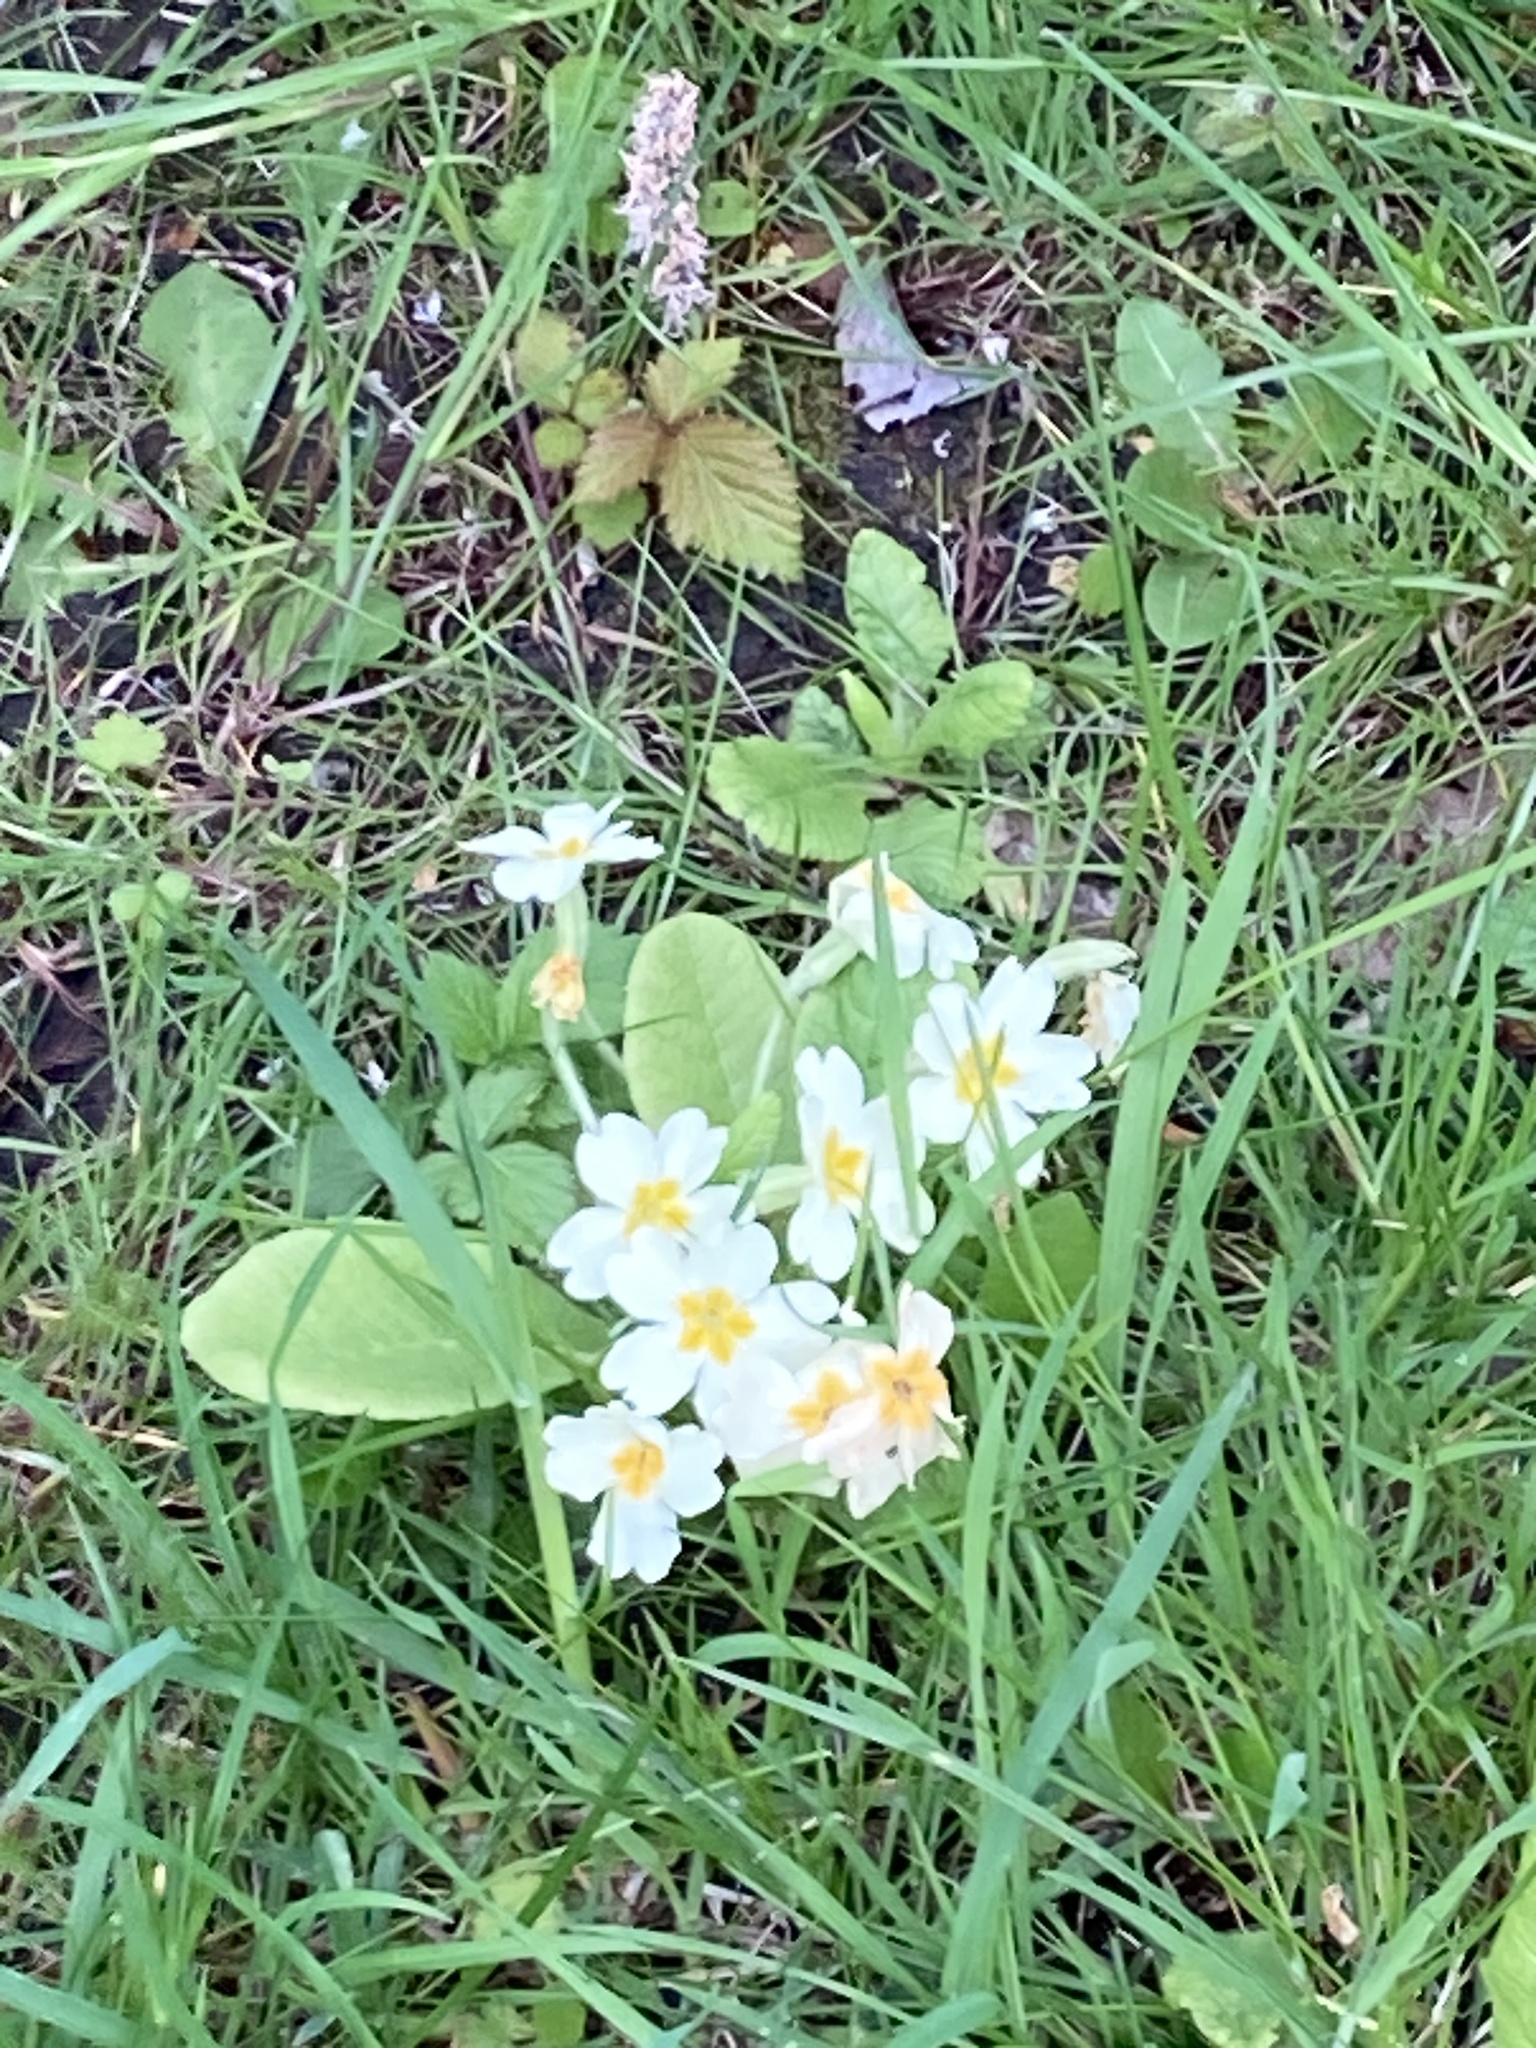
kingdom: Plantae
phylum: Tracheophyta
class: Magnoliopsida
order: Ericales
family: Primulaceae
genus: Primula
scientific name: Primula vulgaris
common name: Primrose
